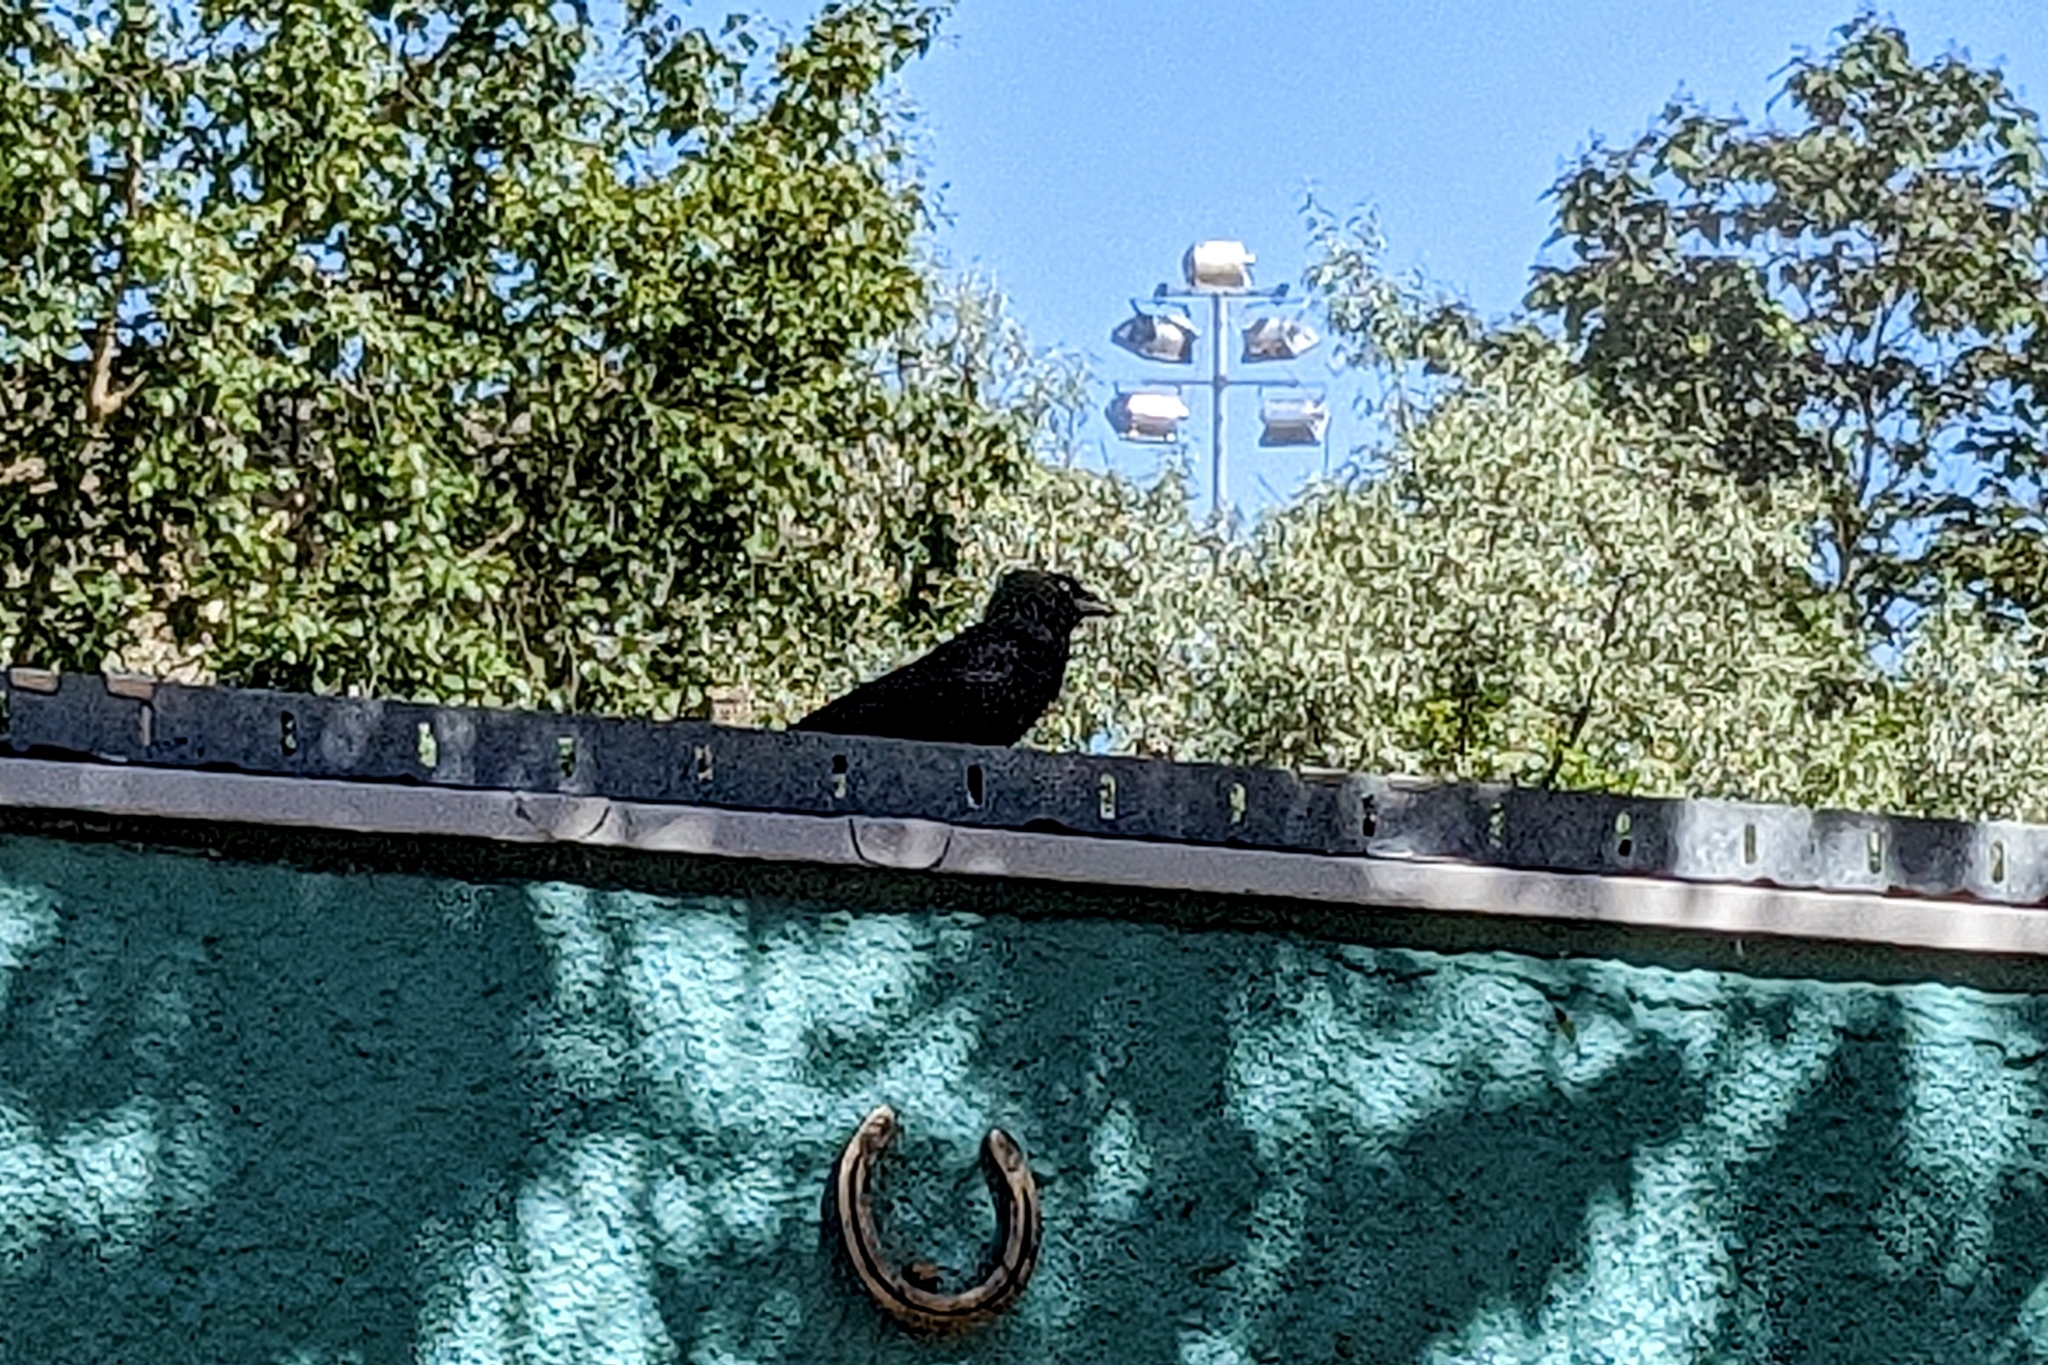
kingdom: Animalia
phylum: Chordata
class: Aves
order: Passeriformes
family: Corvidae
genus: Coloeus
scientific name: Coloeus monedula
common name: Western jackdaw
